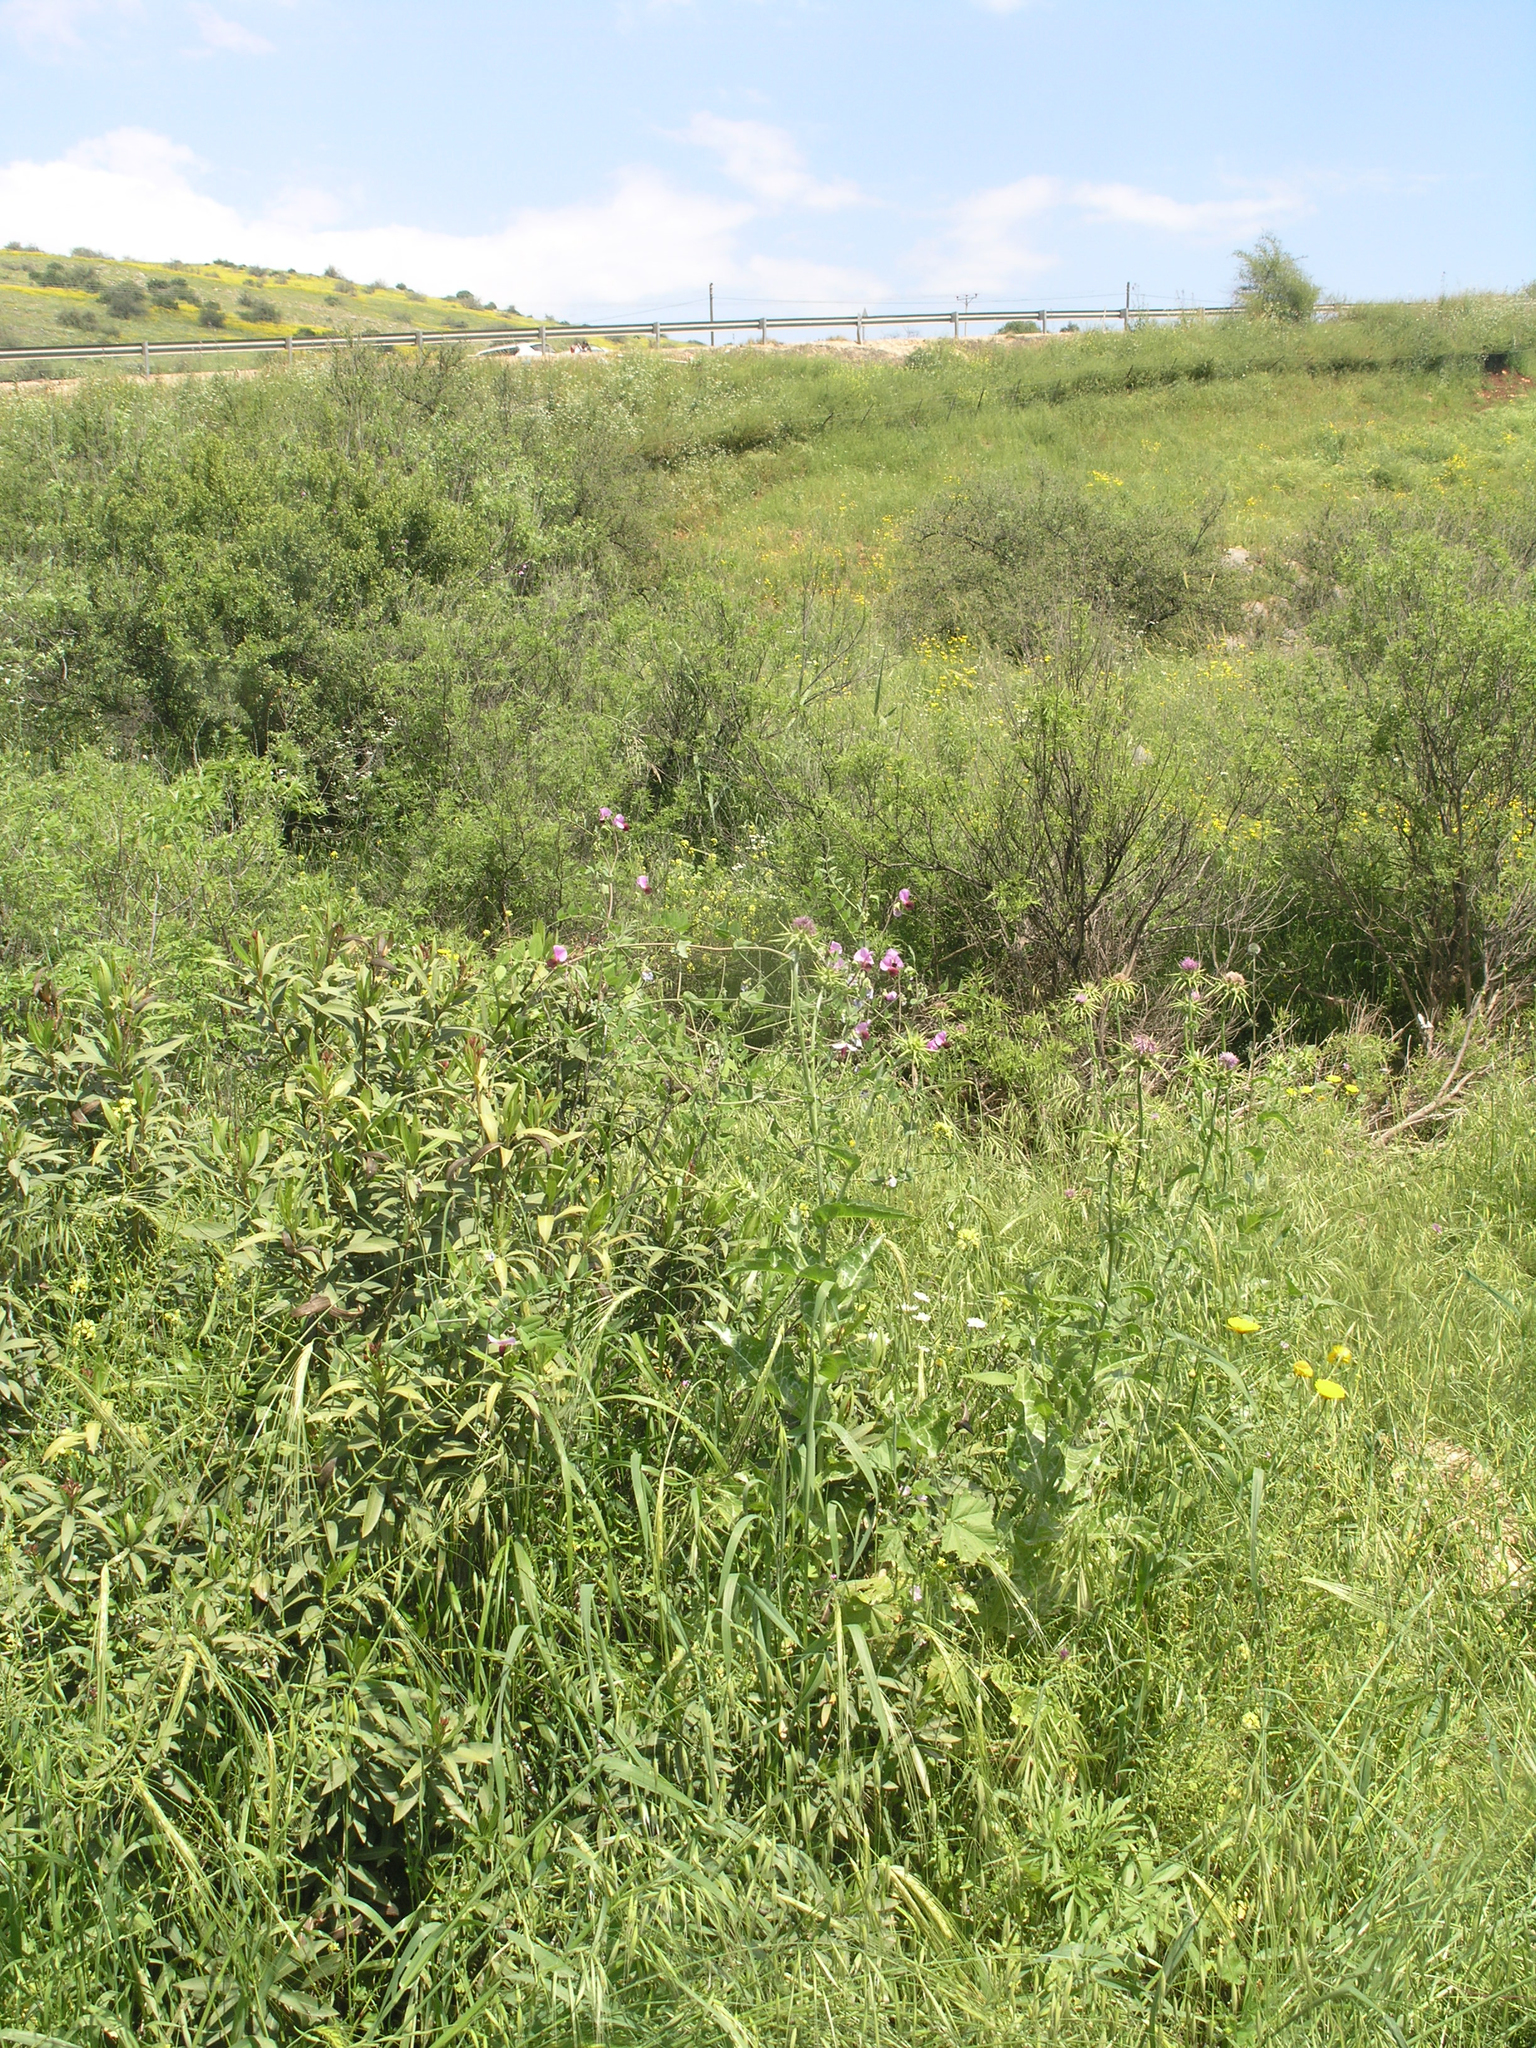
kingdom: Plantae
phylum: Tracheophyta
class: Magnoliopsida
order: Fabales
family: Fabaceae
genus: Lathyrus
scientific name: Lathyrus oleraceus
